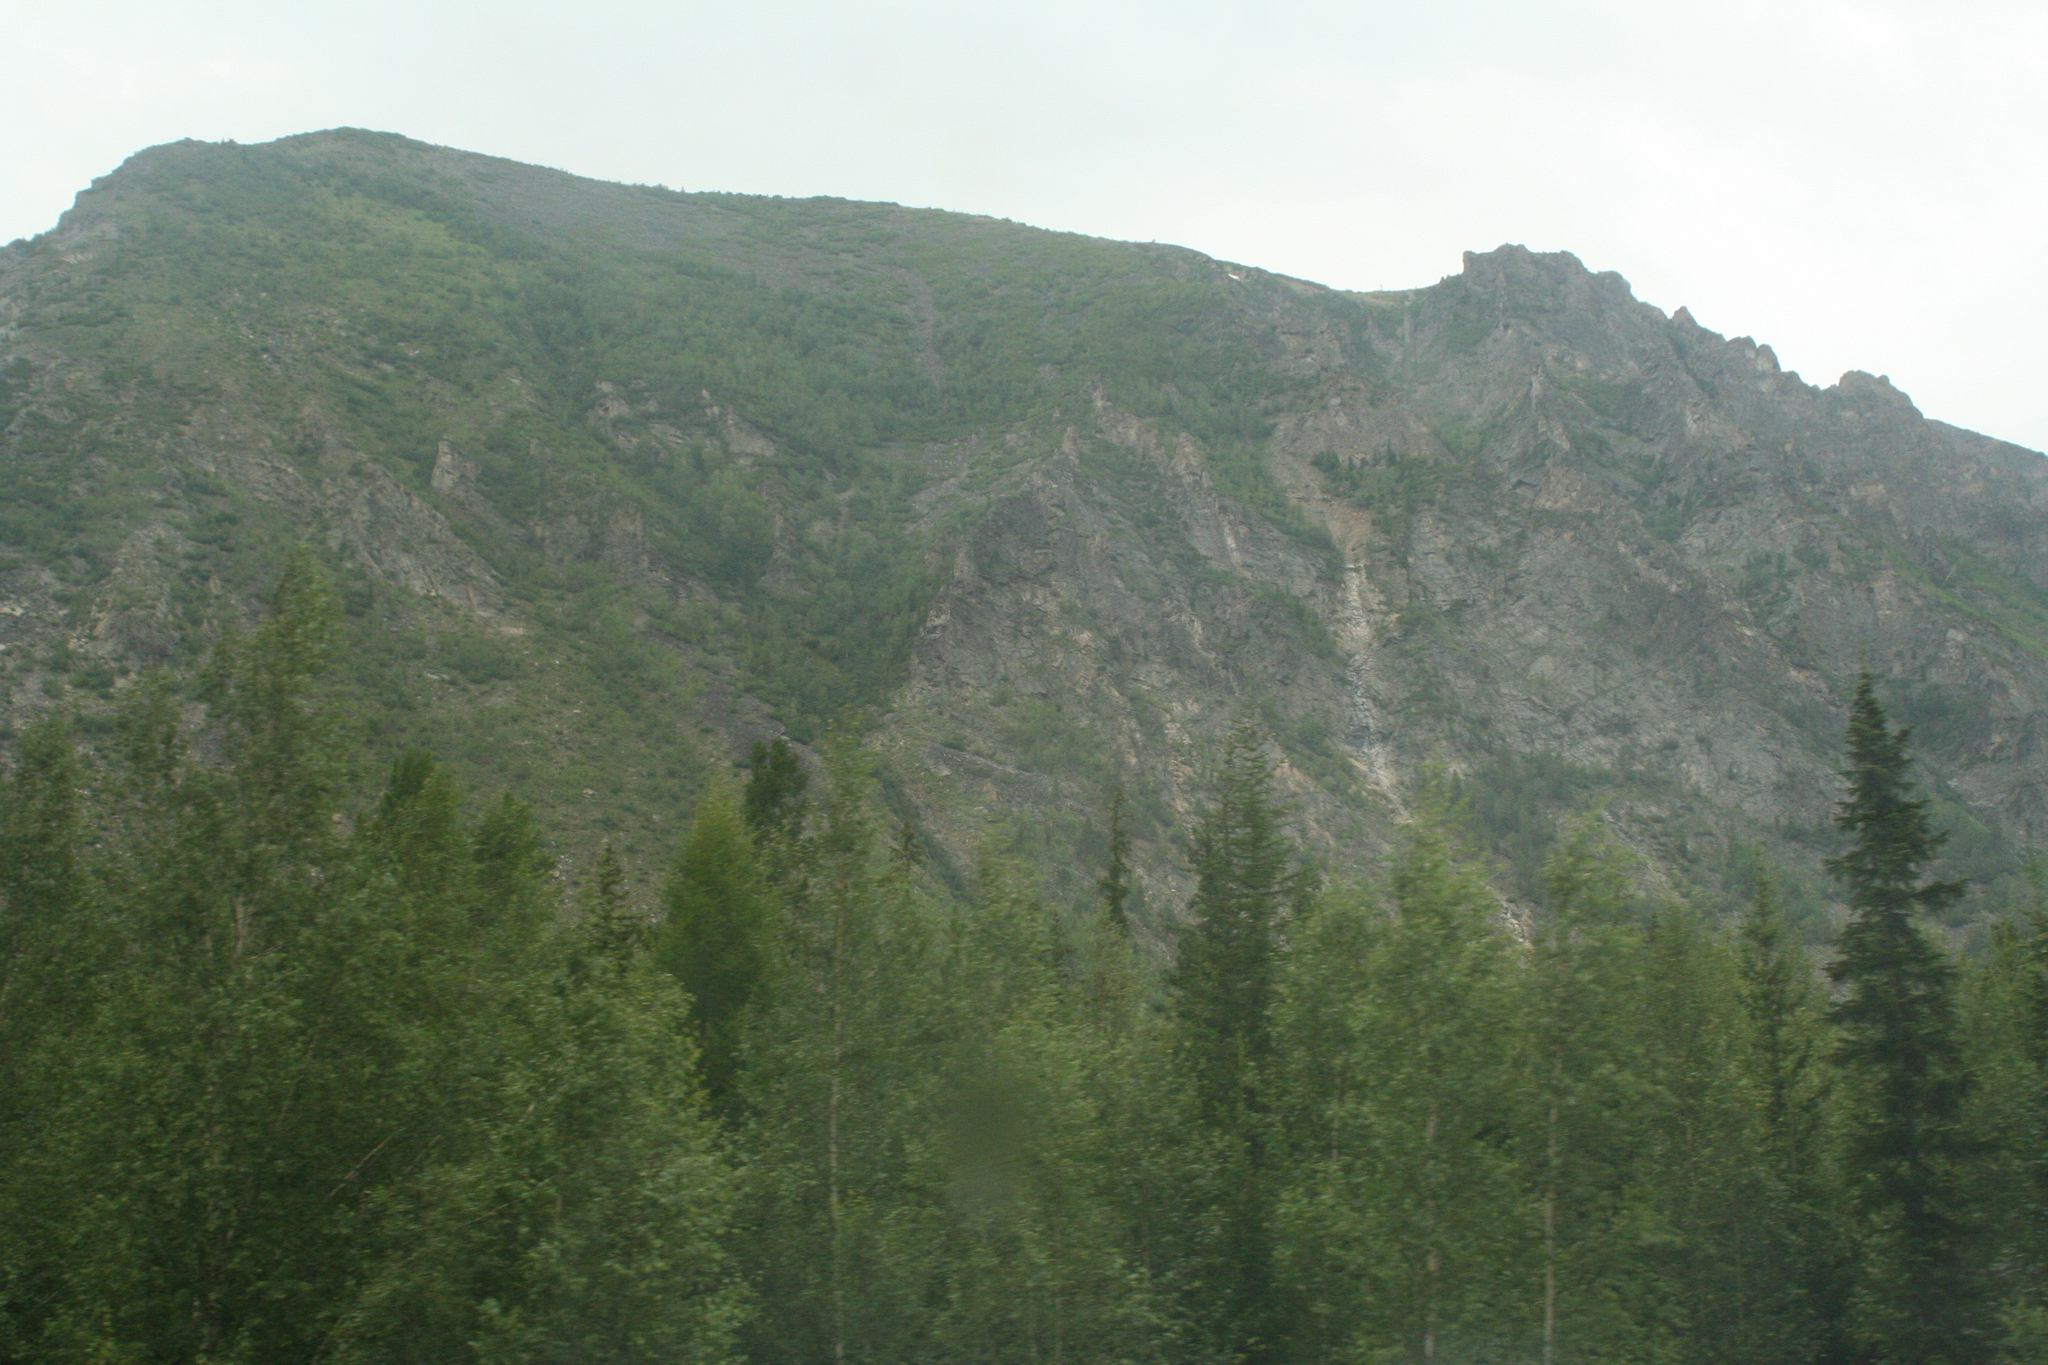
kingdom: Plantae
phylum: Tracheophyta
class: Pinopsida
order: Pinales
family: Pinaceae
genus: Picea
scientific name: Picea obovata
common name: Siberian spruce
